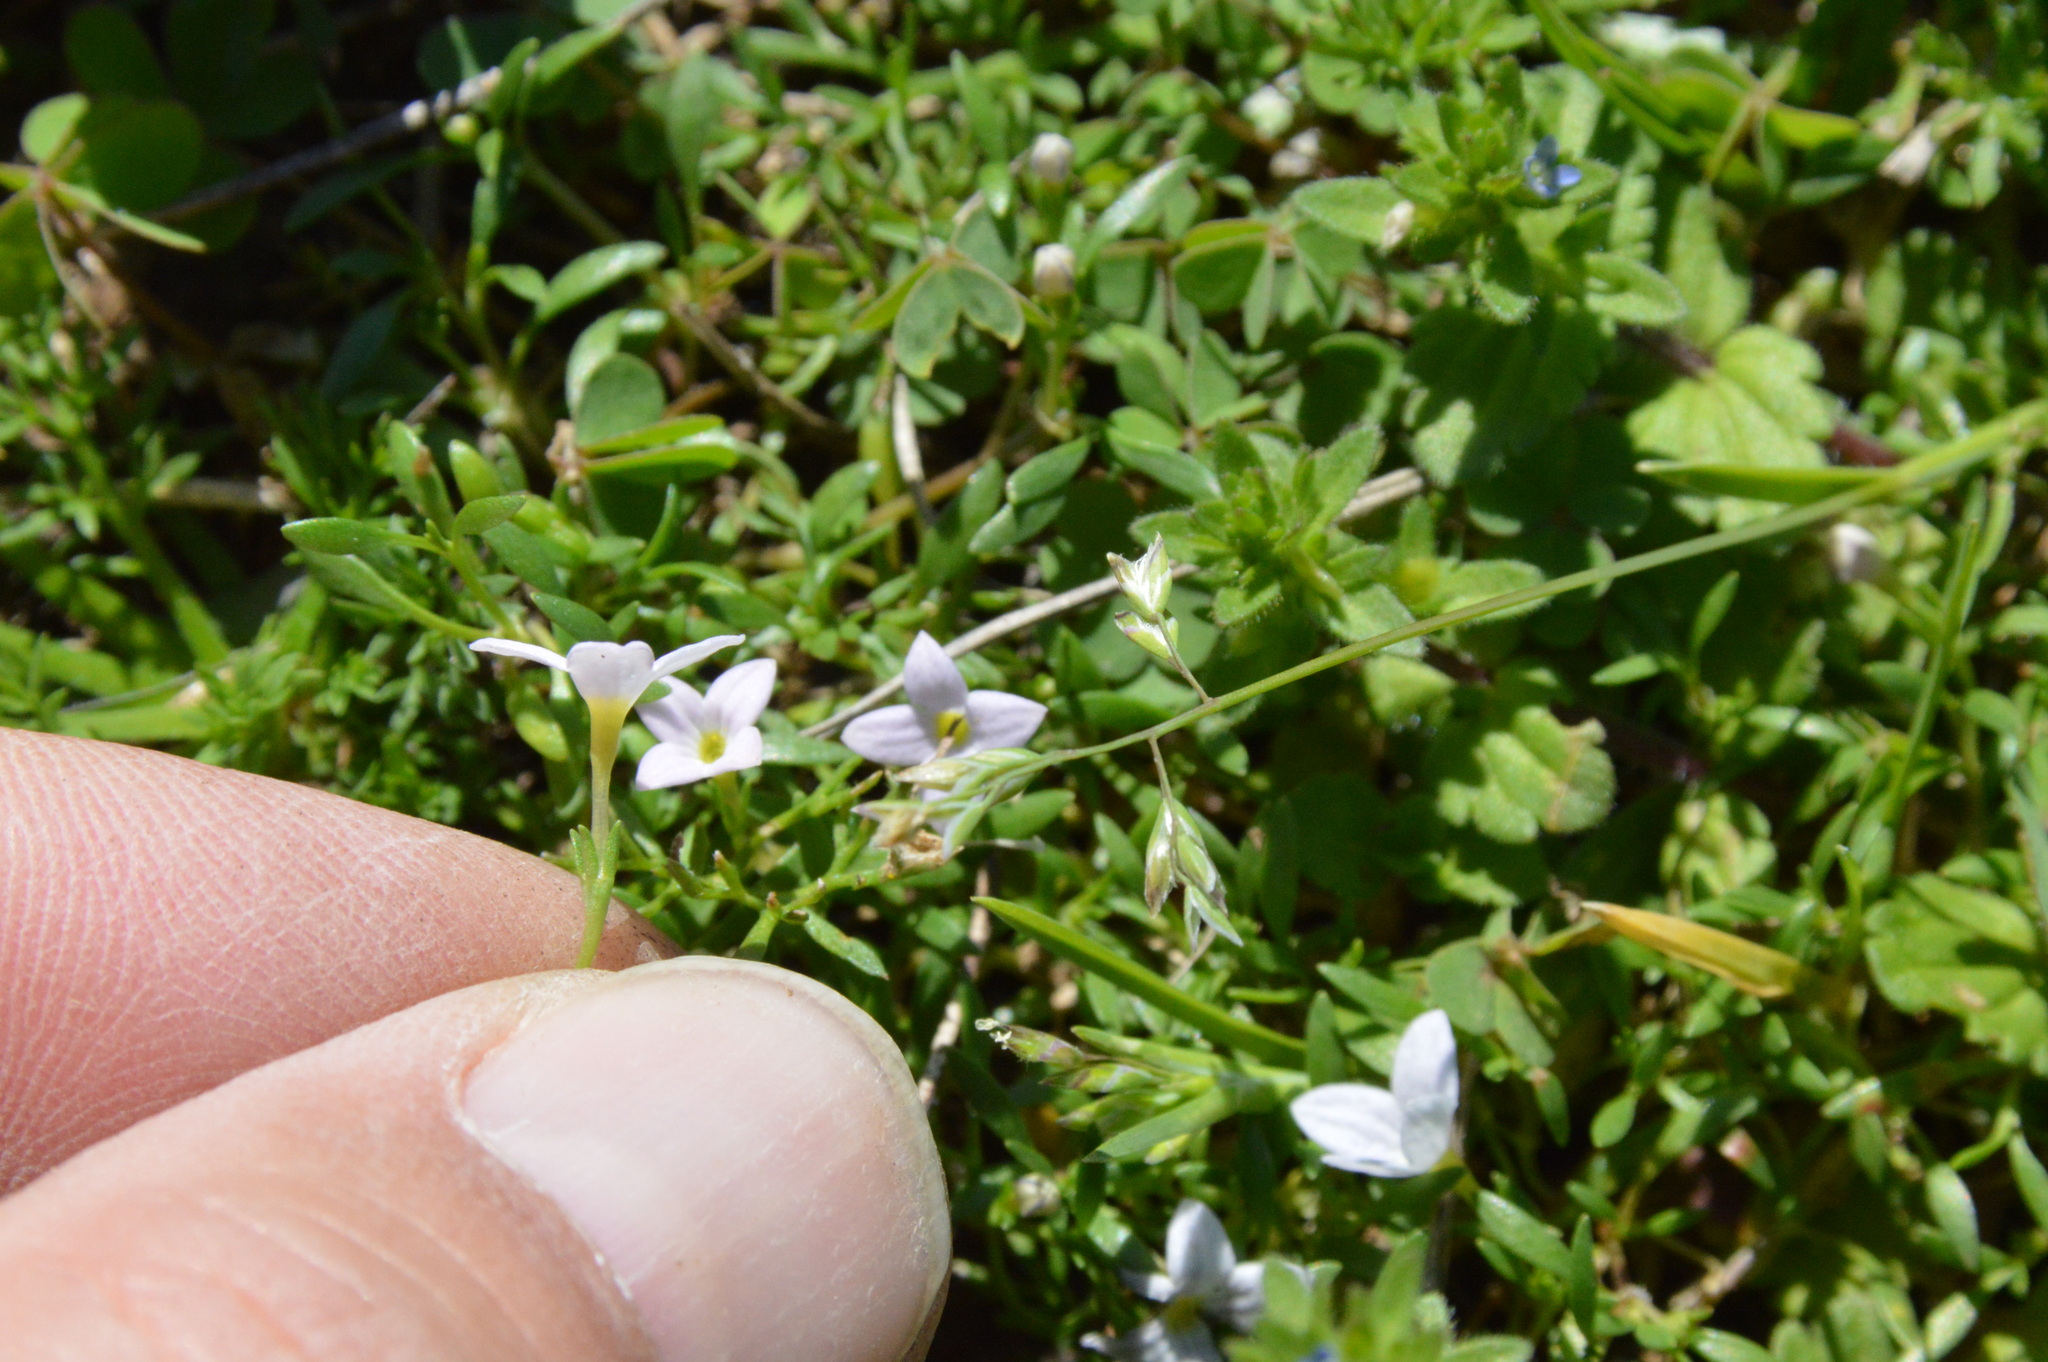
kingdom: Plantae
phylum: Tracheophyta
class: Magnoliopsida
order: Gentianales
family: Rubiaceae
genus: Houstonia
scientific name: Houstonia rosea
